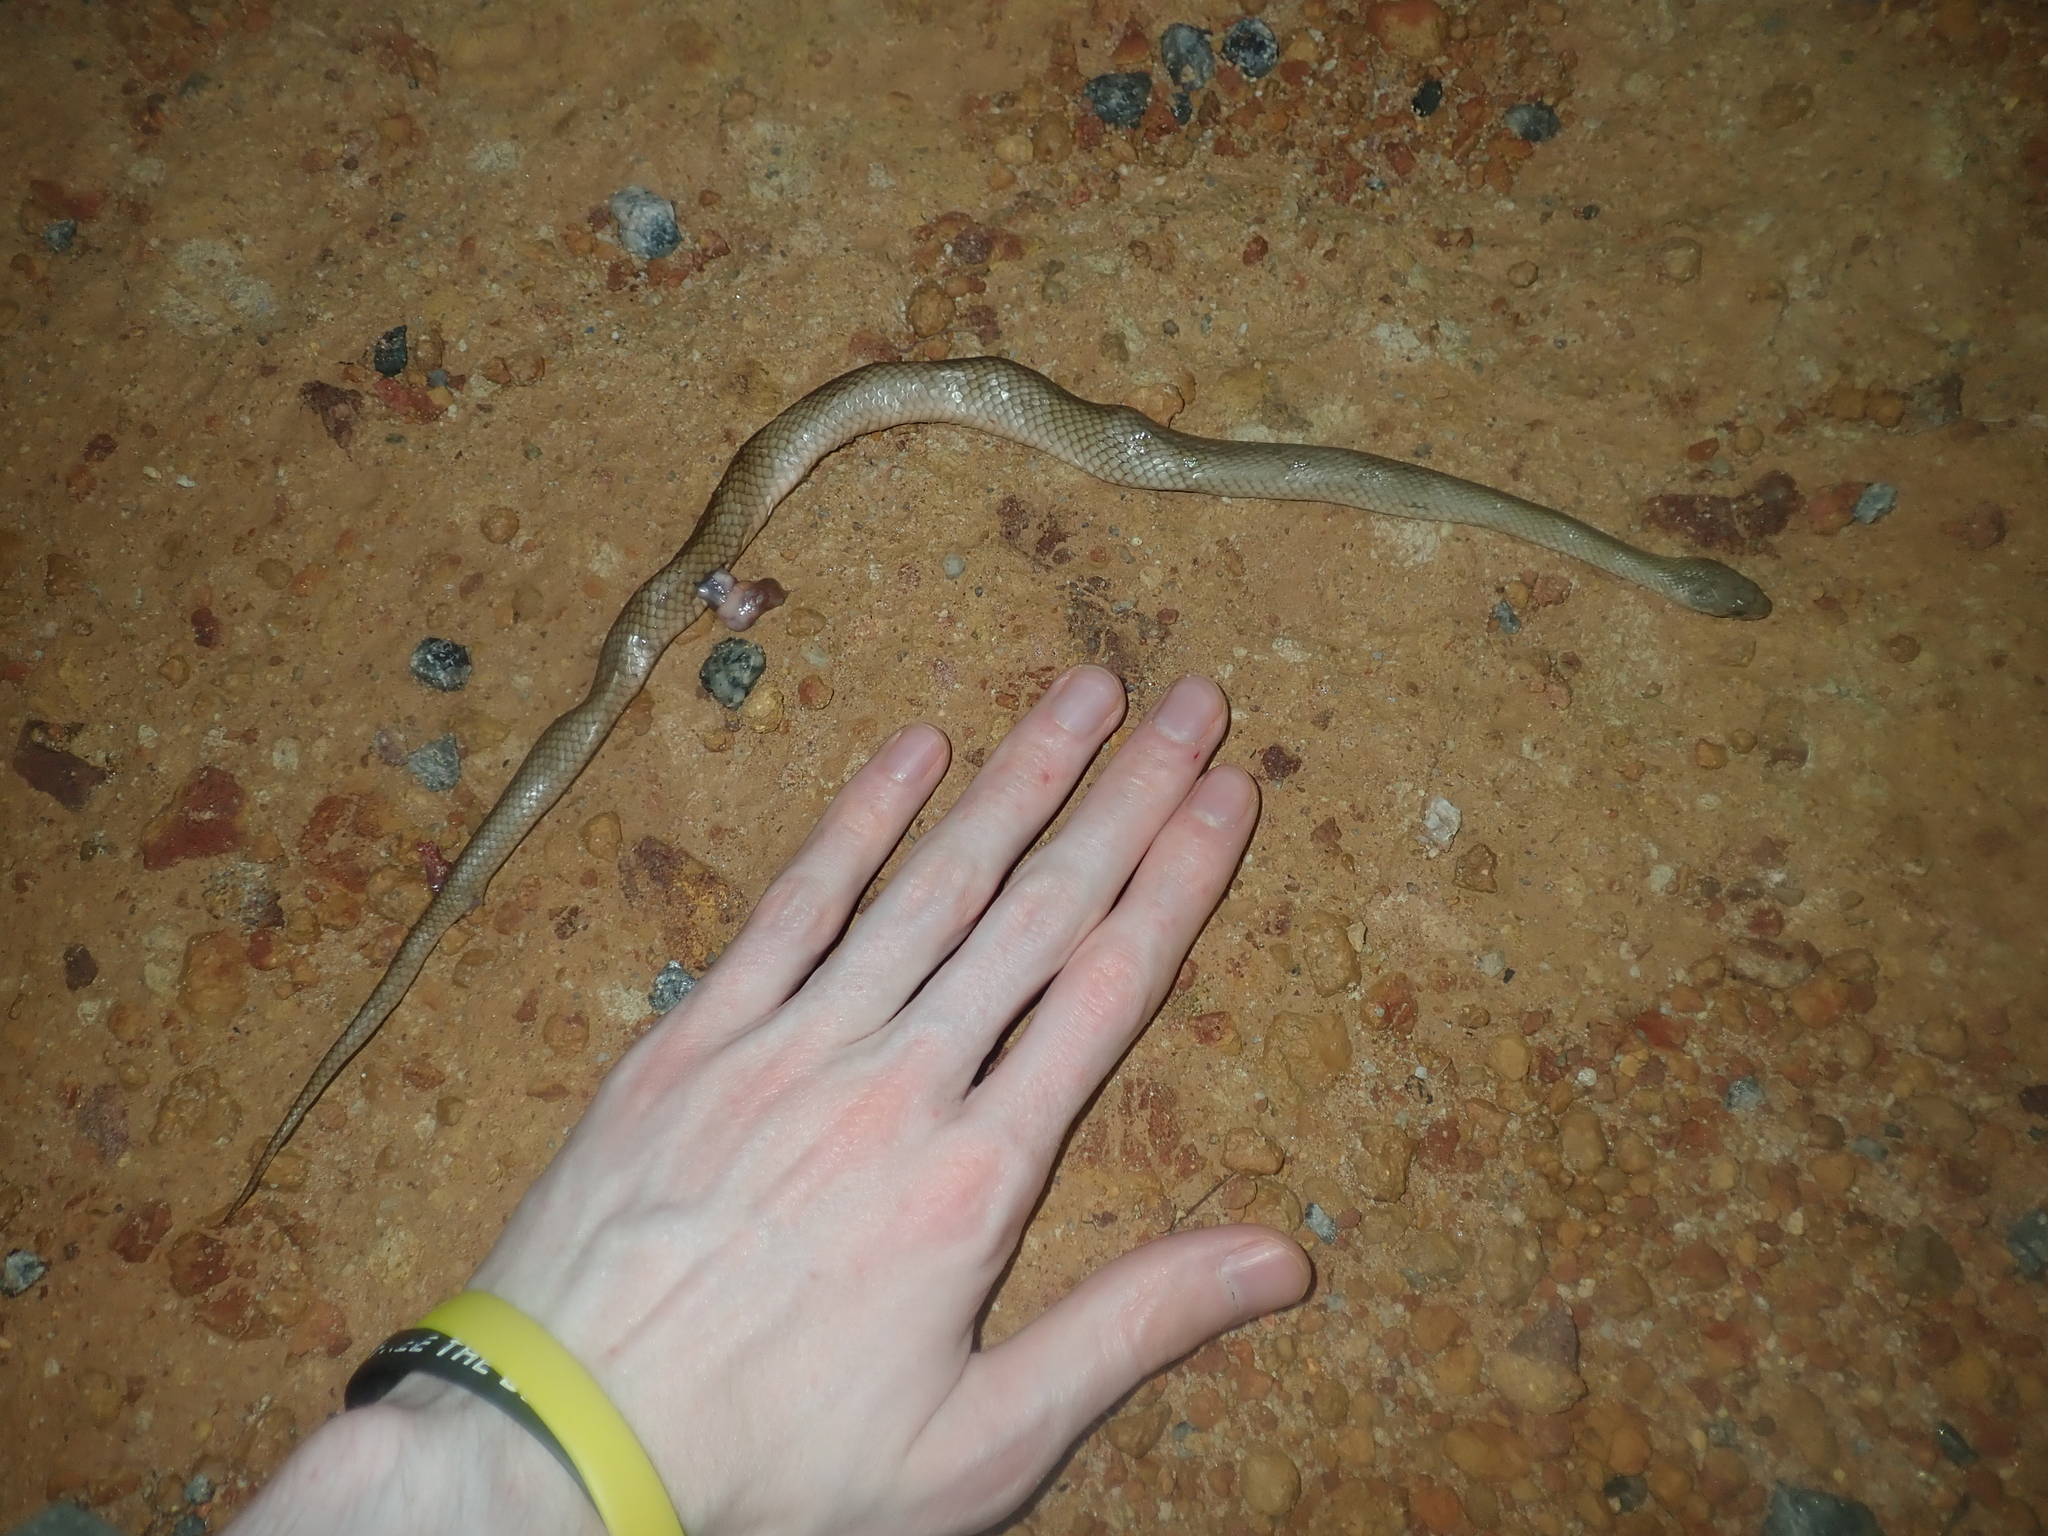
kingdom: Animalia
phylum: Chordata
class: Squamata
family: Elapidae
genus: Echiopsis
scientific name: Echiopsis curta
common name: Bardick
